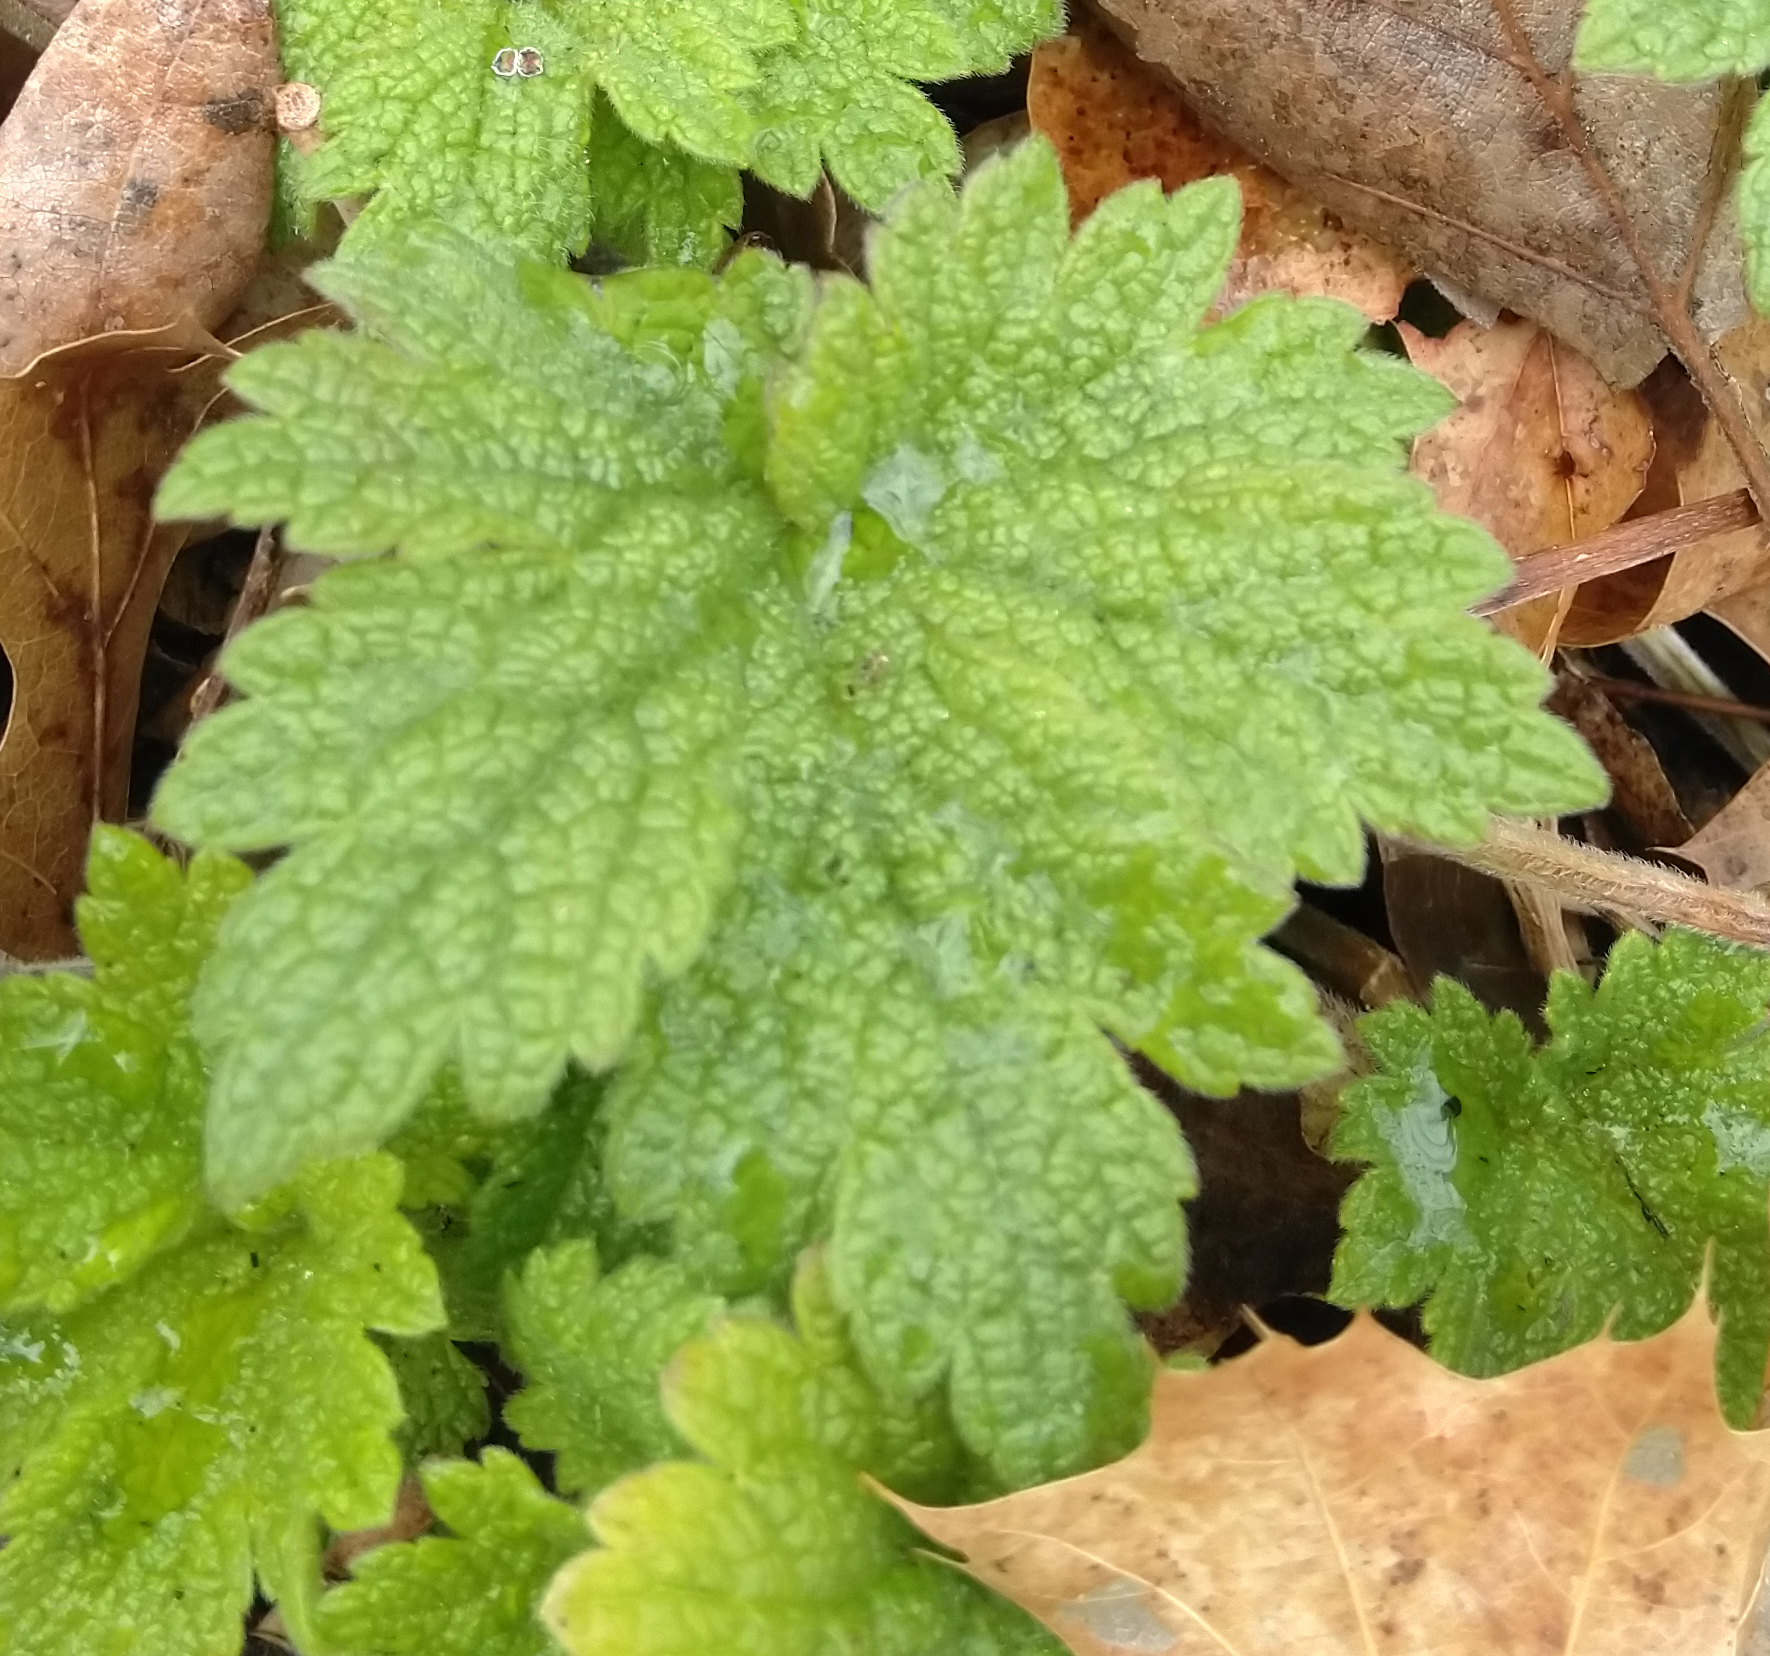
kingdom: Plantae
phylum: Tracheophyta
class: Magnoliopsida
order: Lamiales
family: Lamiaceae
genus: Leonurus
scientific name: Leonurus cardiaca
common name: Motherwort
